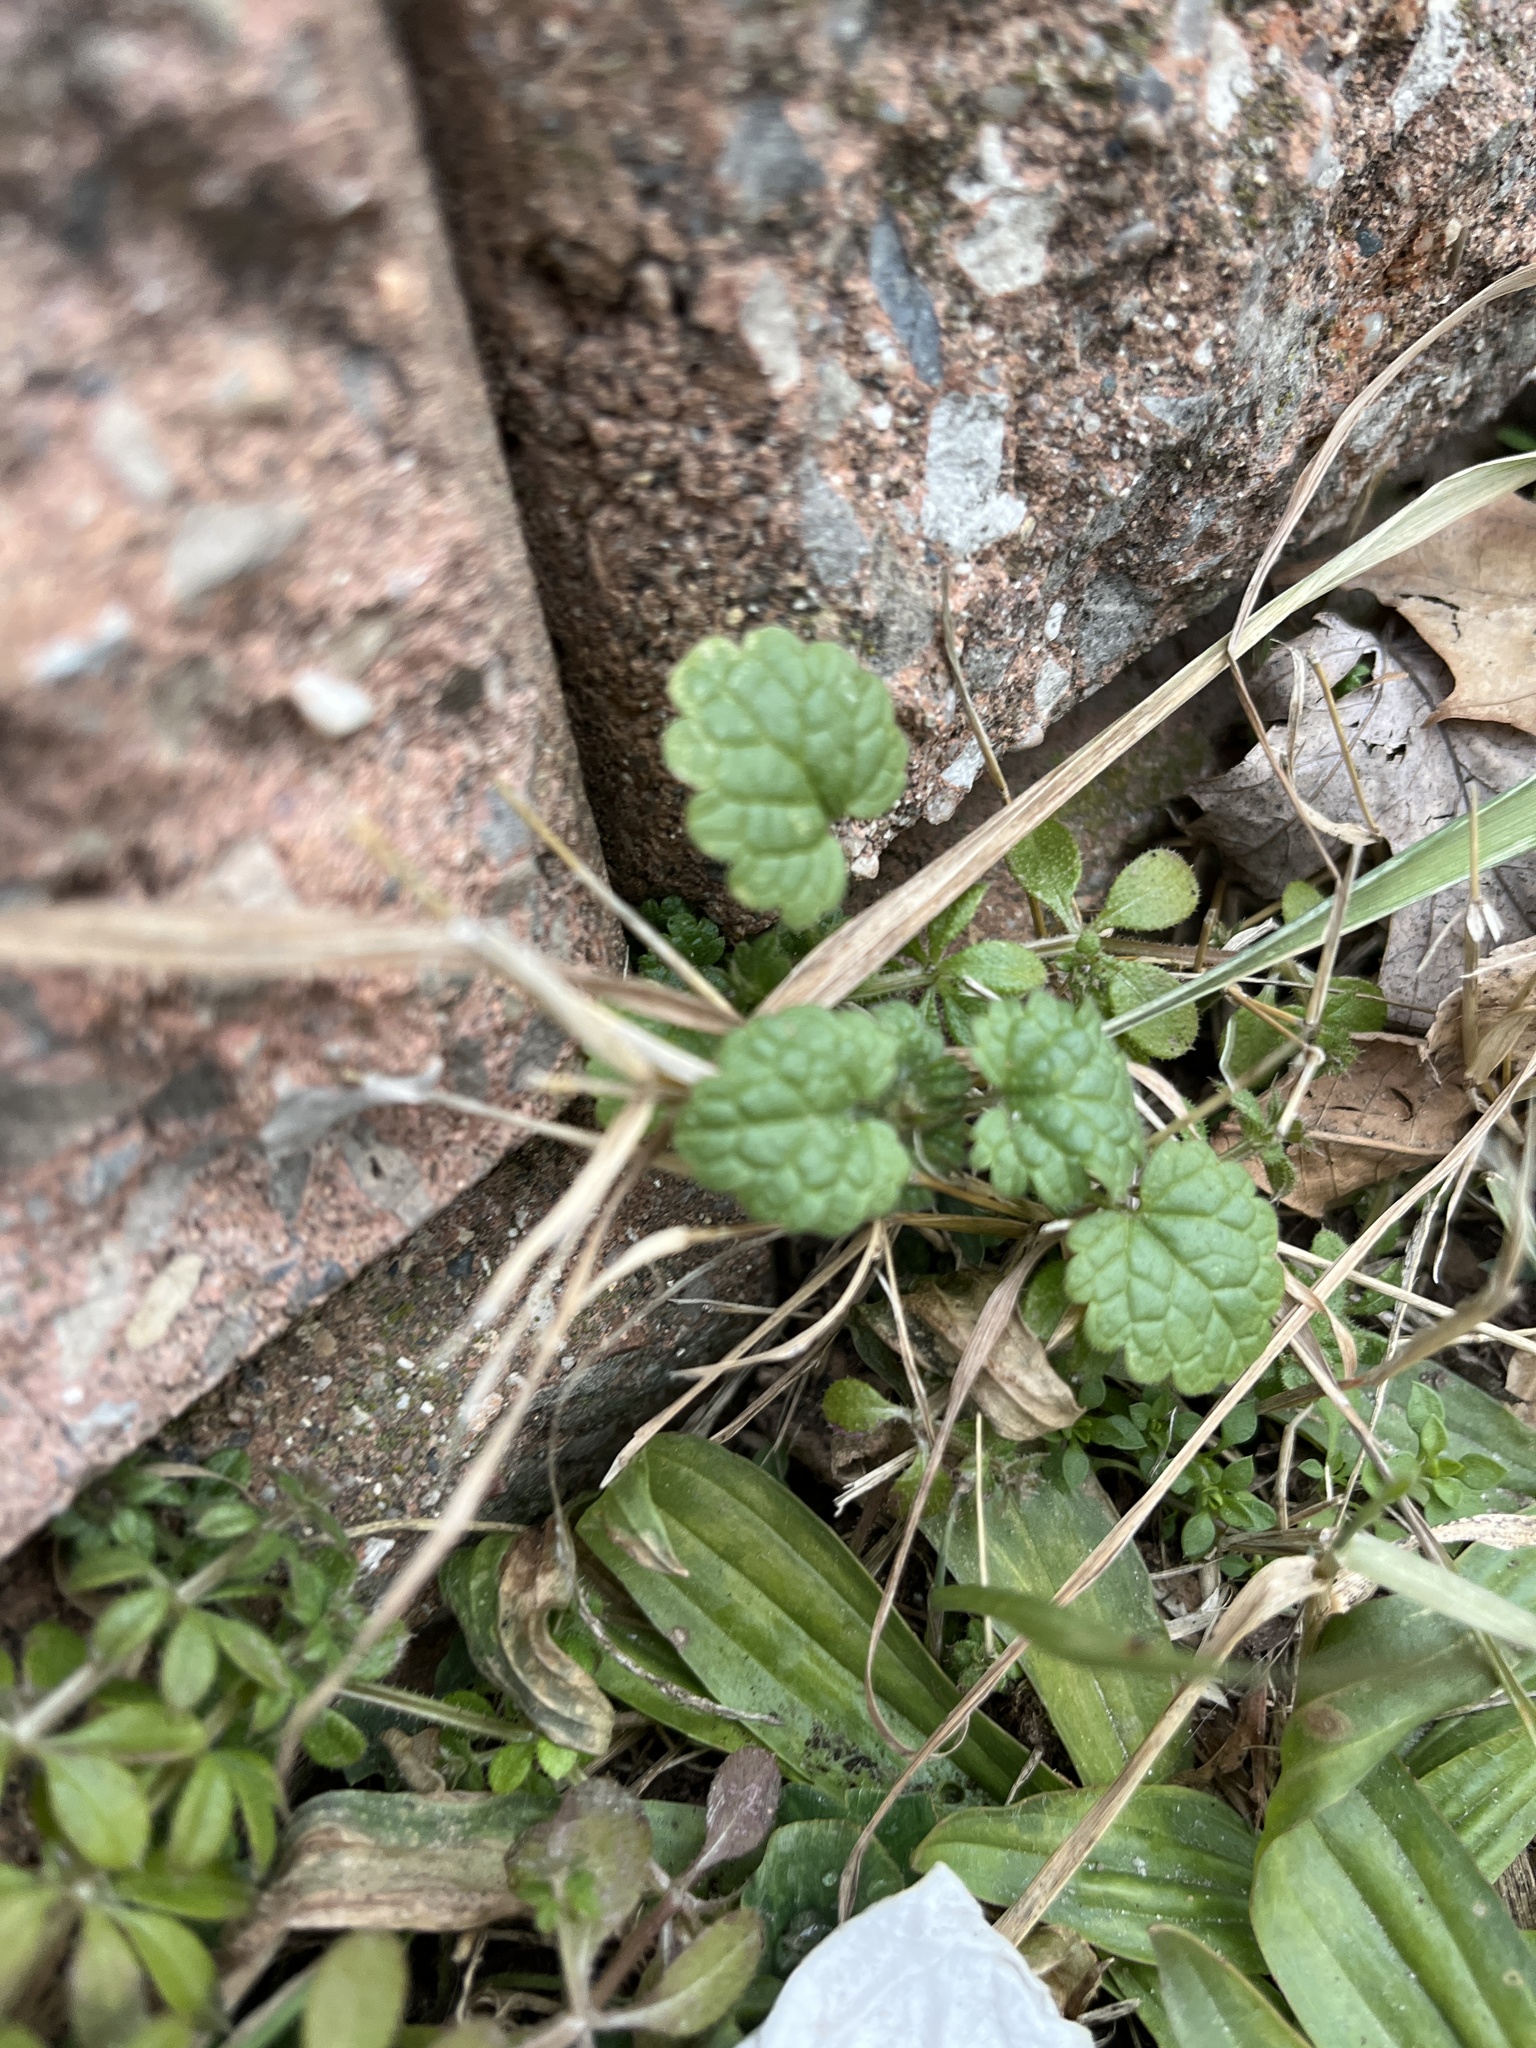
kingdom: Plantae
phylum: Tracheophyta
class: Magnoliopsida
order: Lamiales
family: Lamiaceae
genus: Lamium
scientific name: Lamium purpureum
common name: Red dead-nettle
